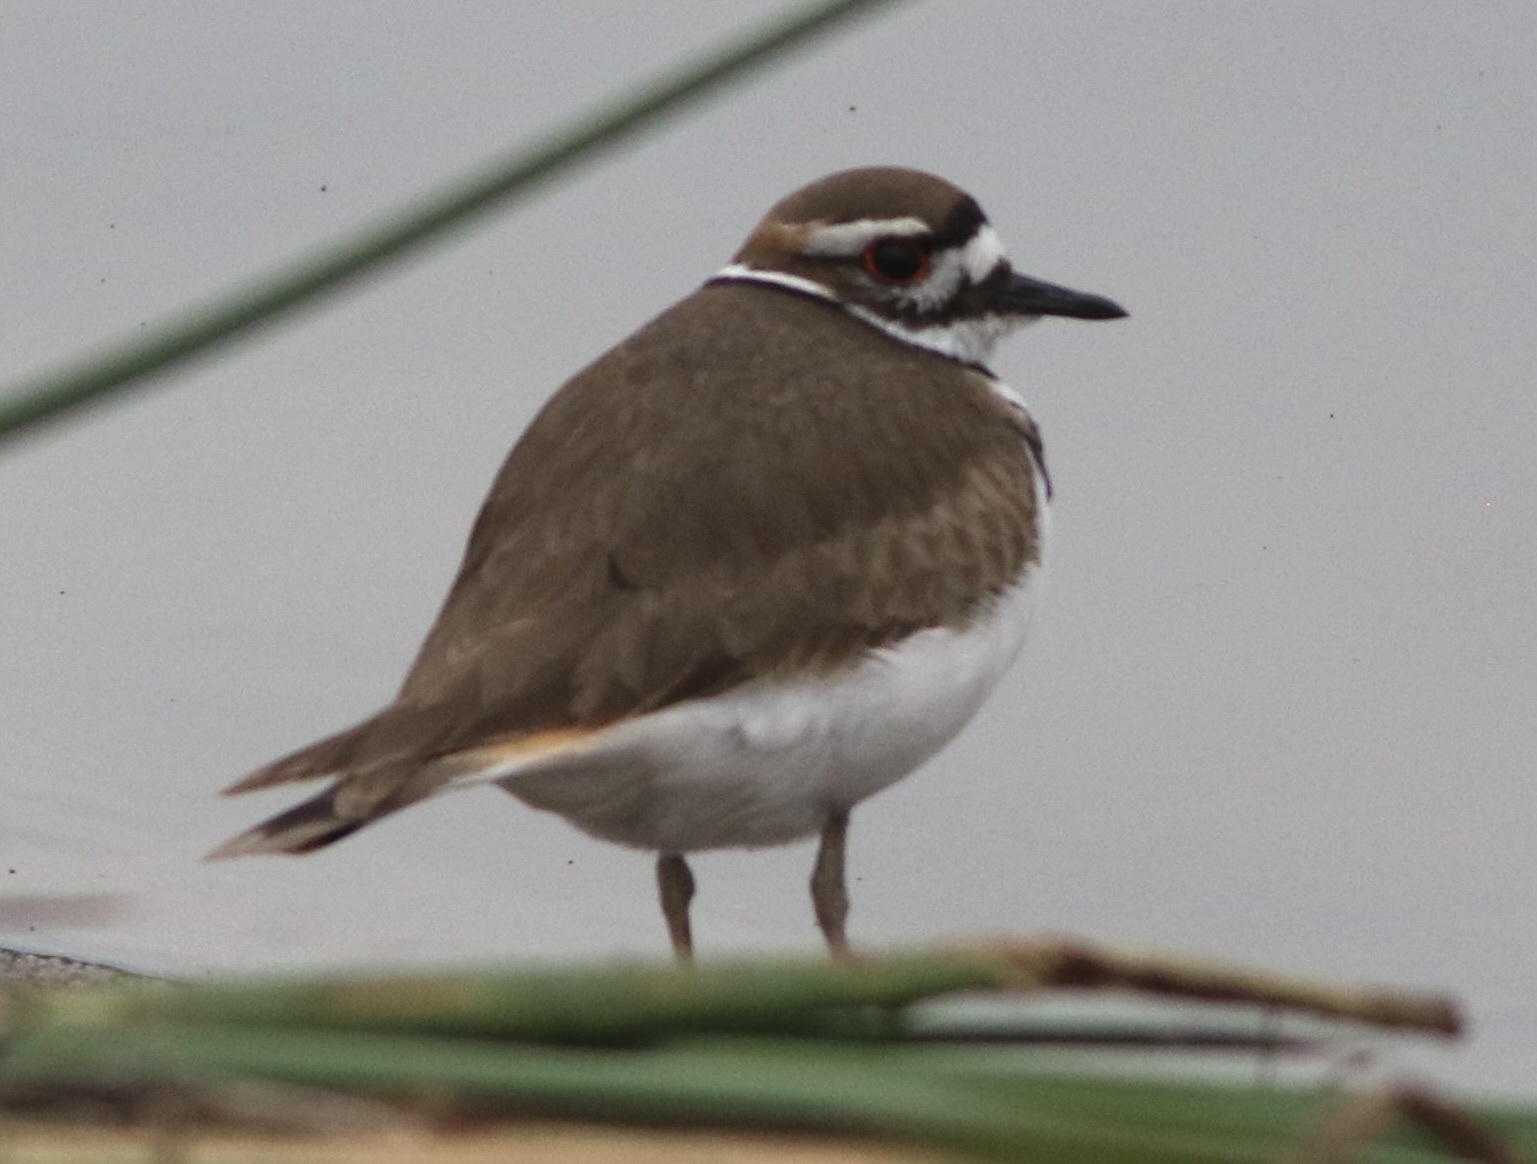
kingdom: Animalia
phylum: Chordata
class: Aves
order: Charadriiformes
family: Charadriidae
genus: Charadrius
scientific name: Charadrius vociferus
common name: Killdeer
